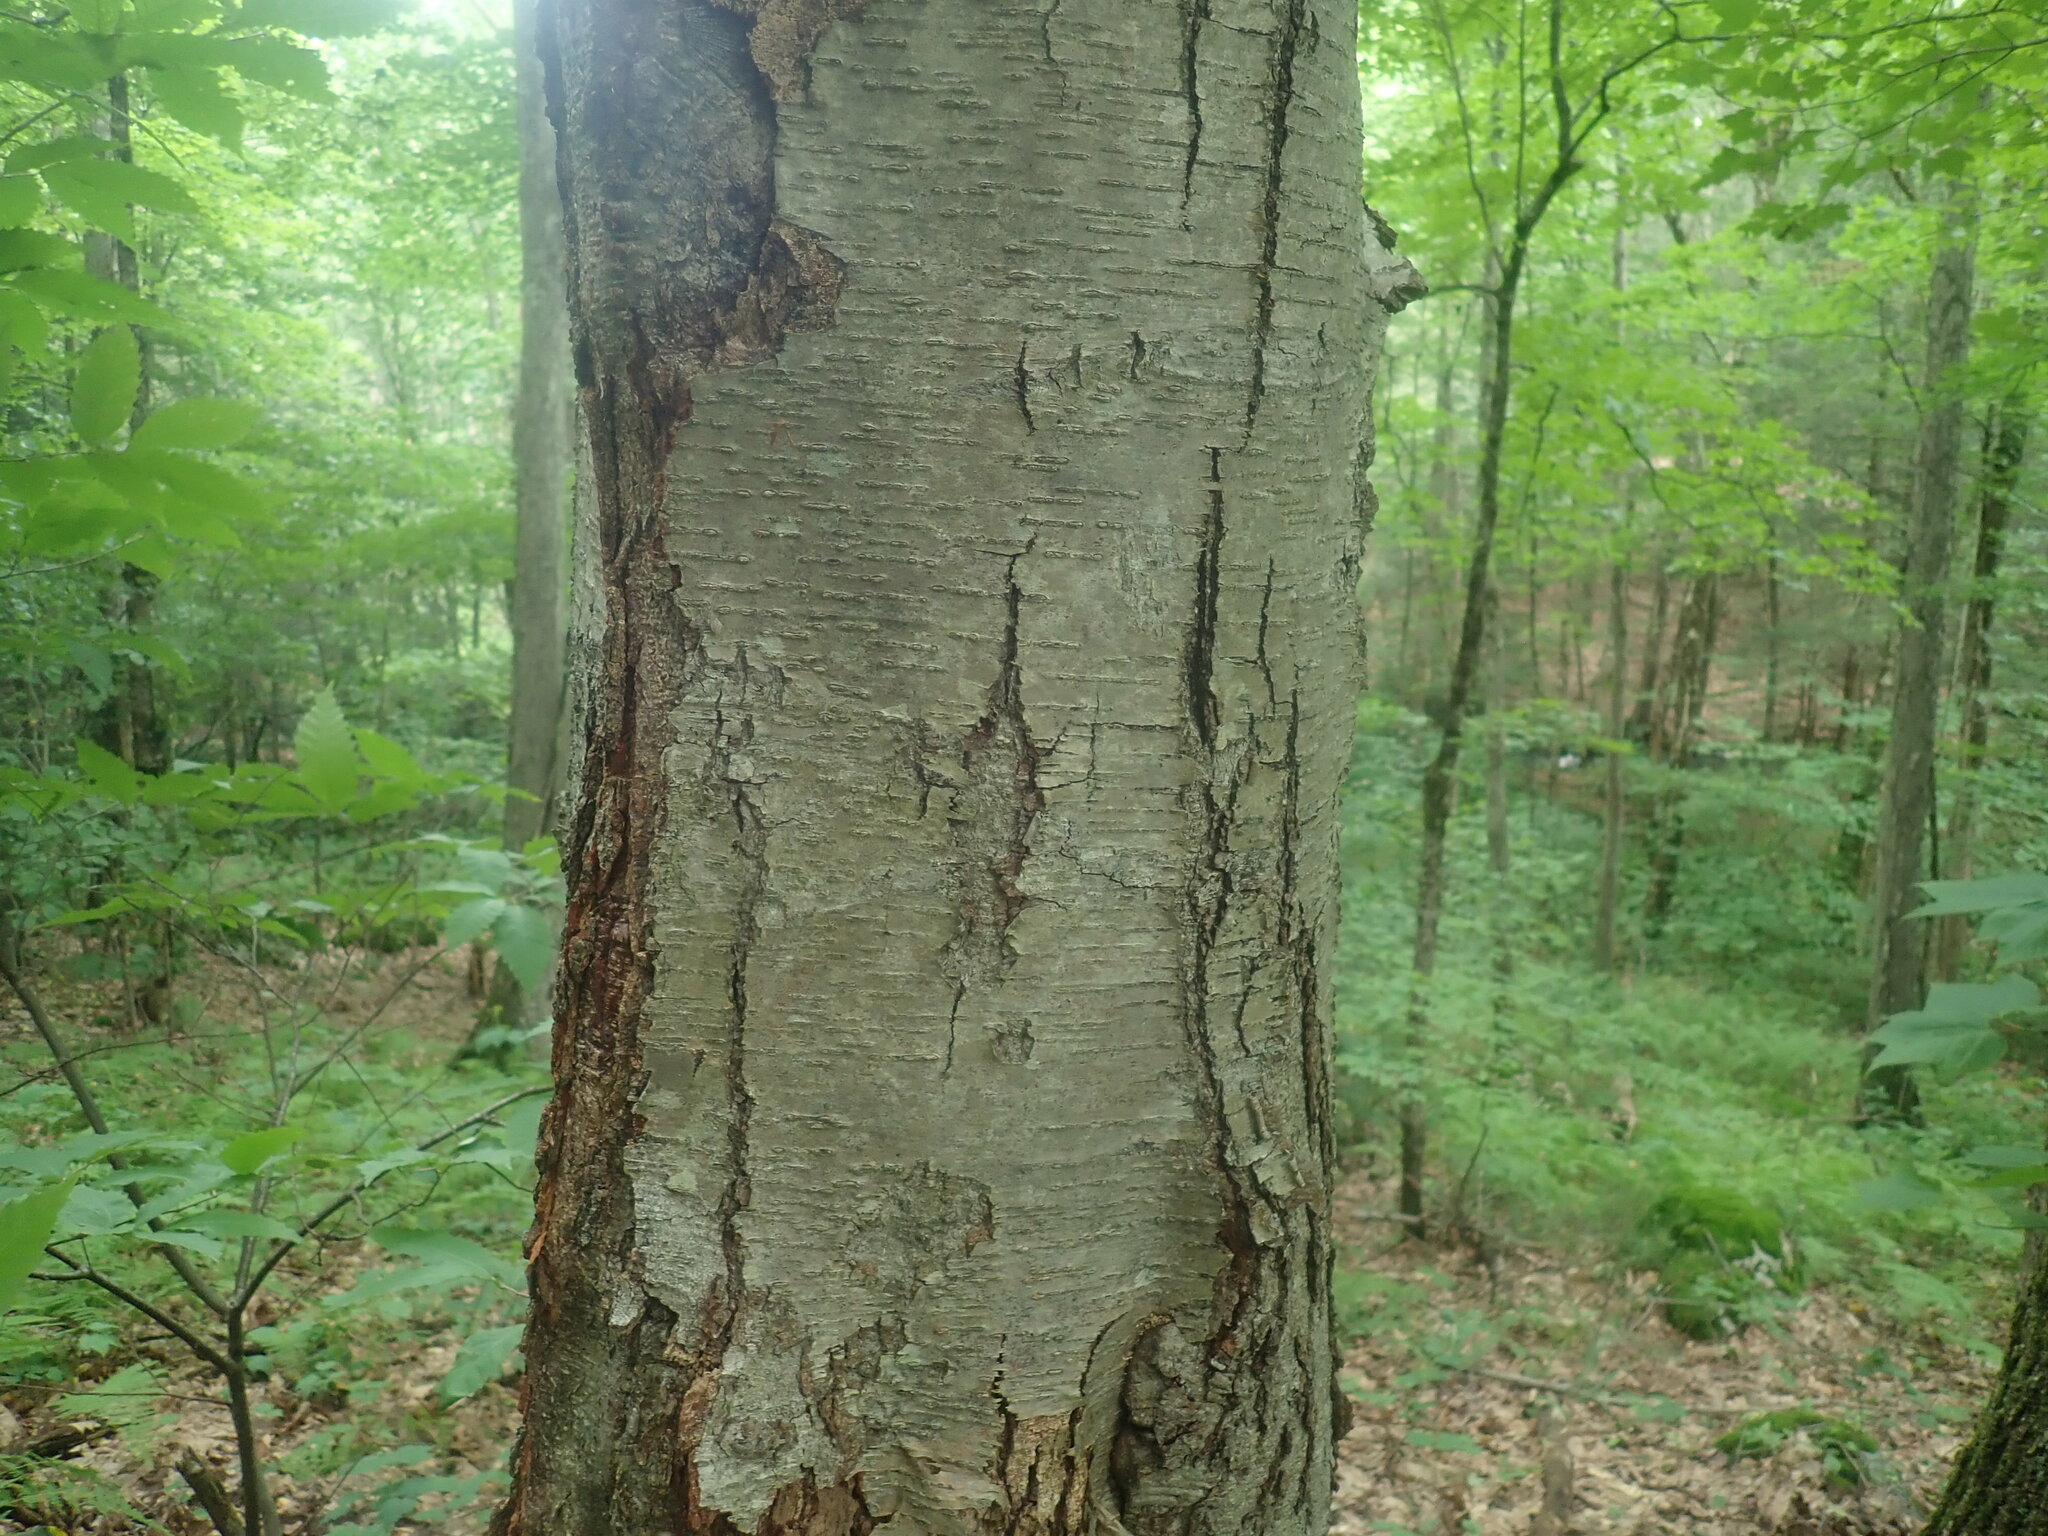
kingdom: Plantae
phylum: Tracheophyta
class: Magnoliopsida
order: Fagales
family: Betulaceae
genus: Betula
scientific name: Betula lenta
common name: Black birch
